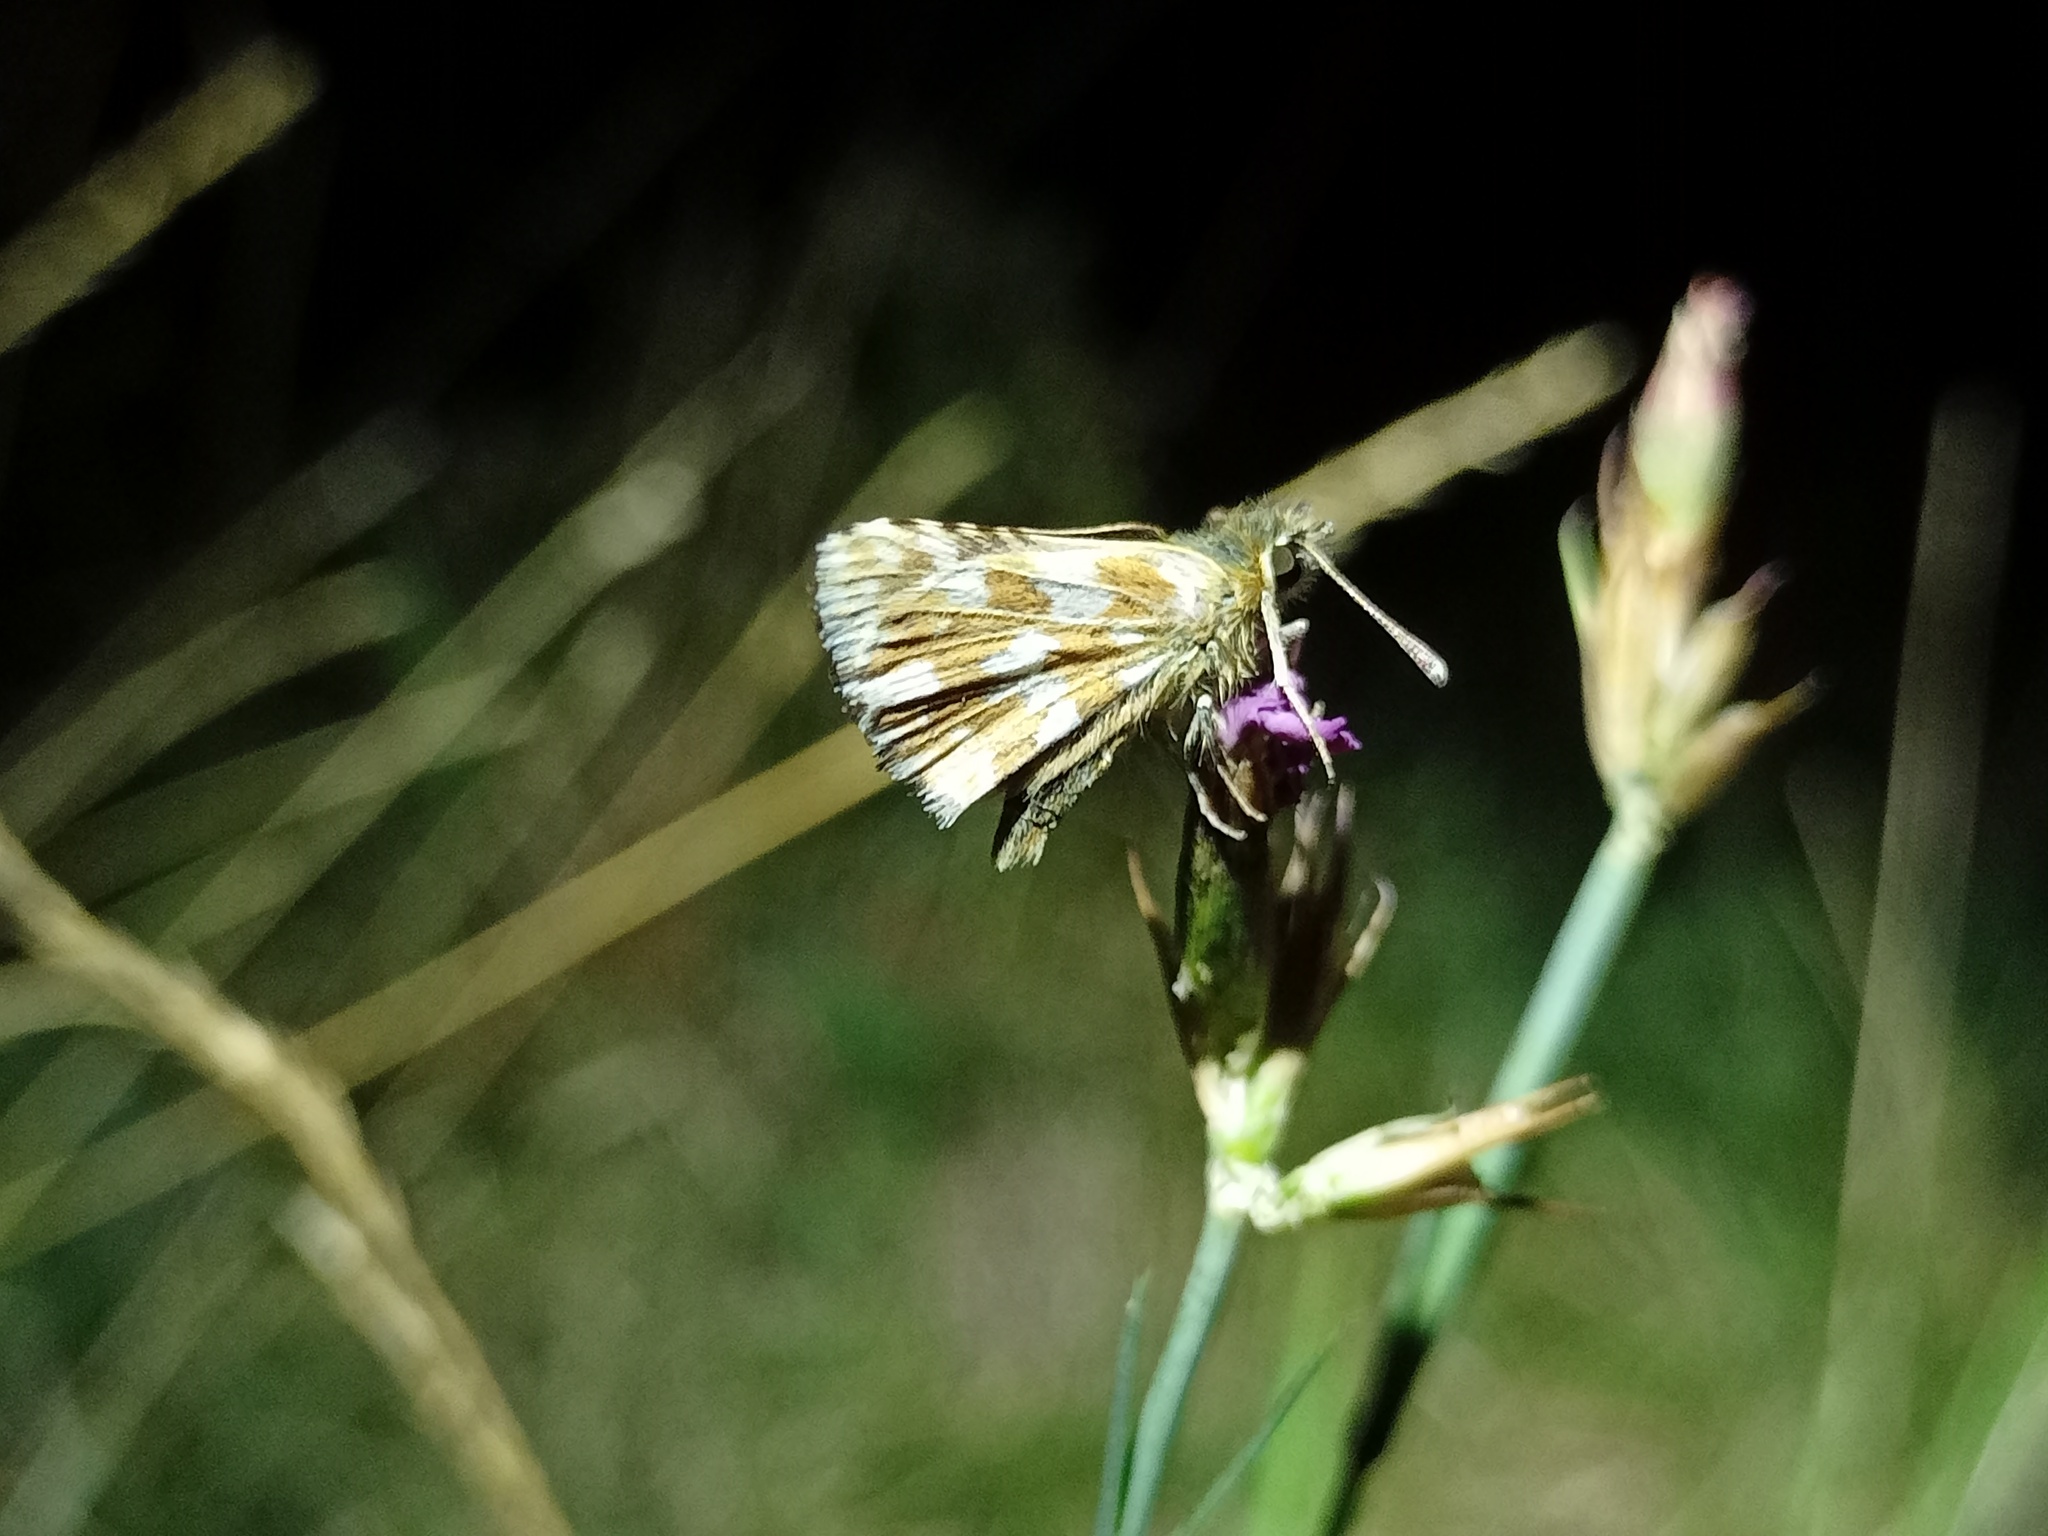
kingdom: Animalia
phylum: Arthropoda
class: Insecta
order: Lepidoptera
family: Hesperiidae
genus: Spialia
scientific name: Spialia sertorius
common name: Red underwing skipper
